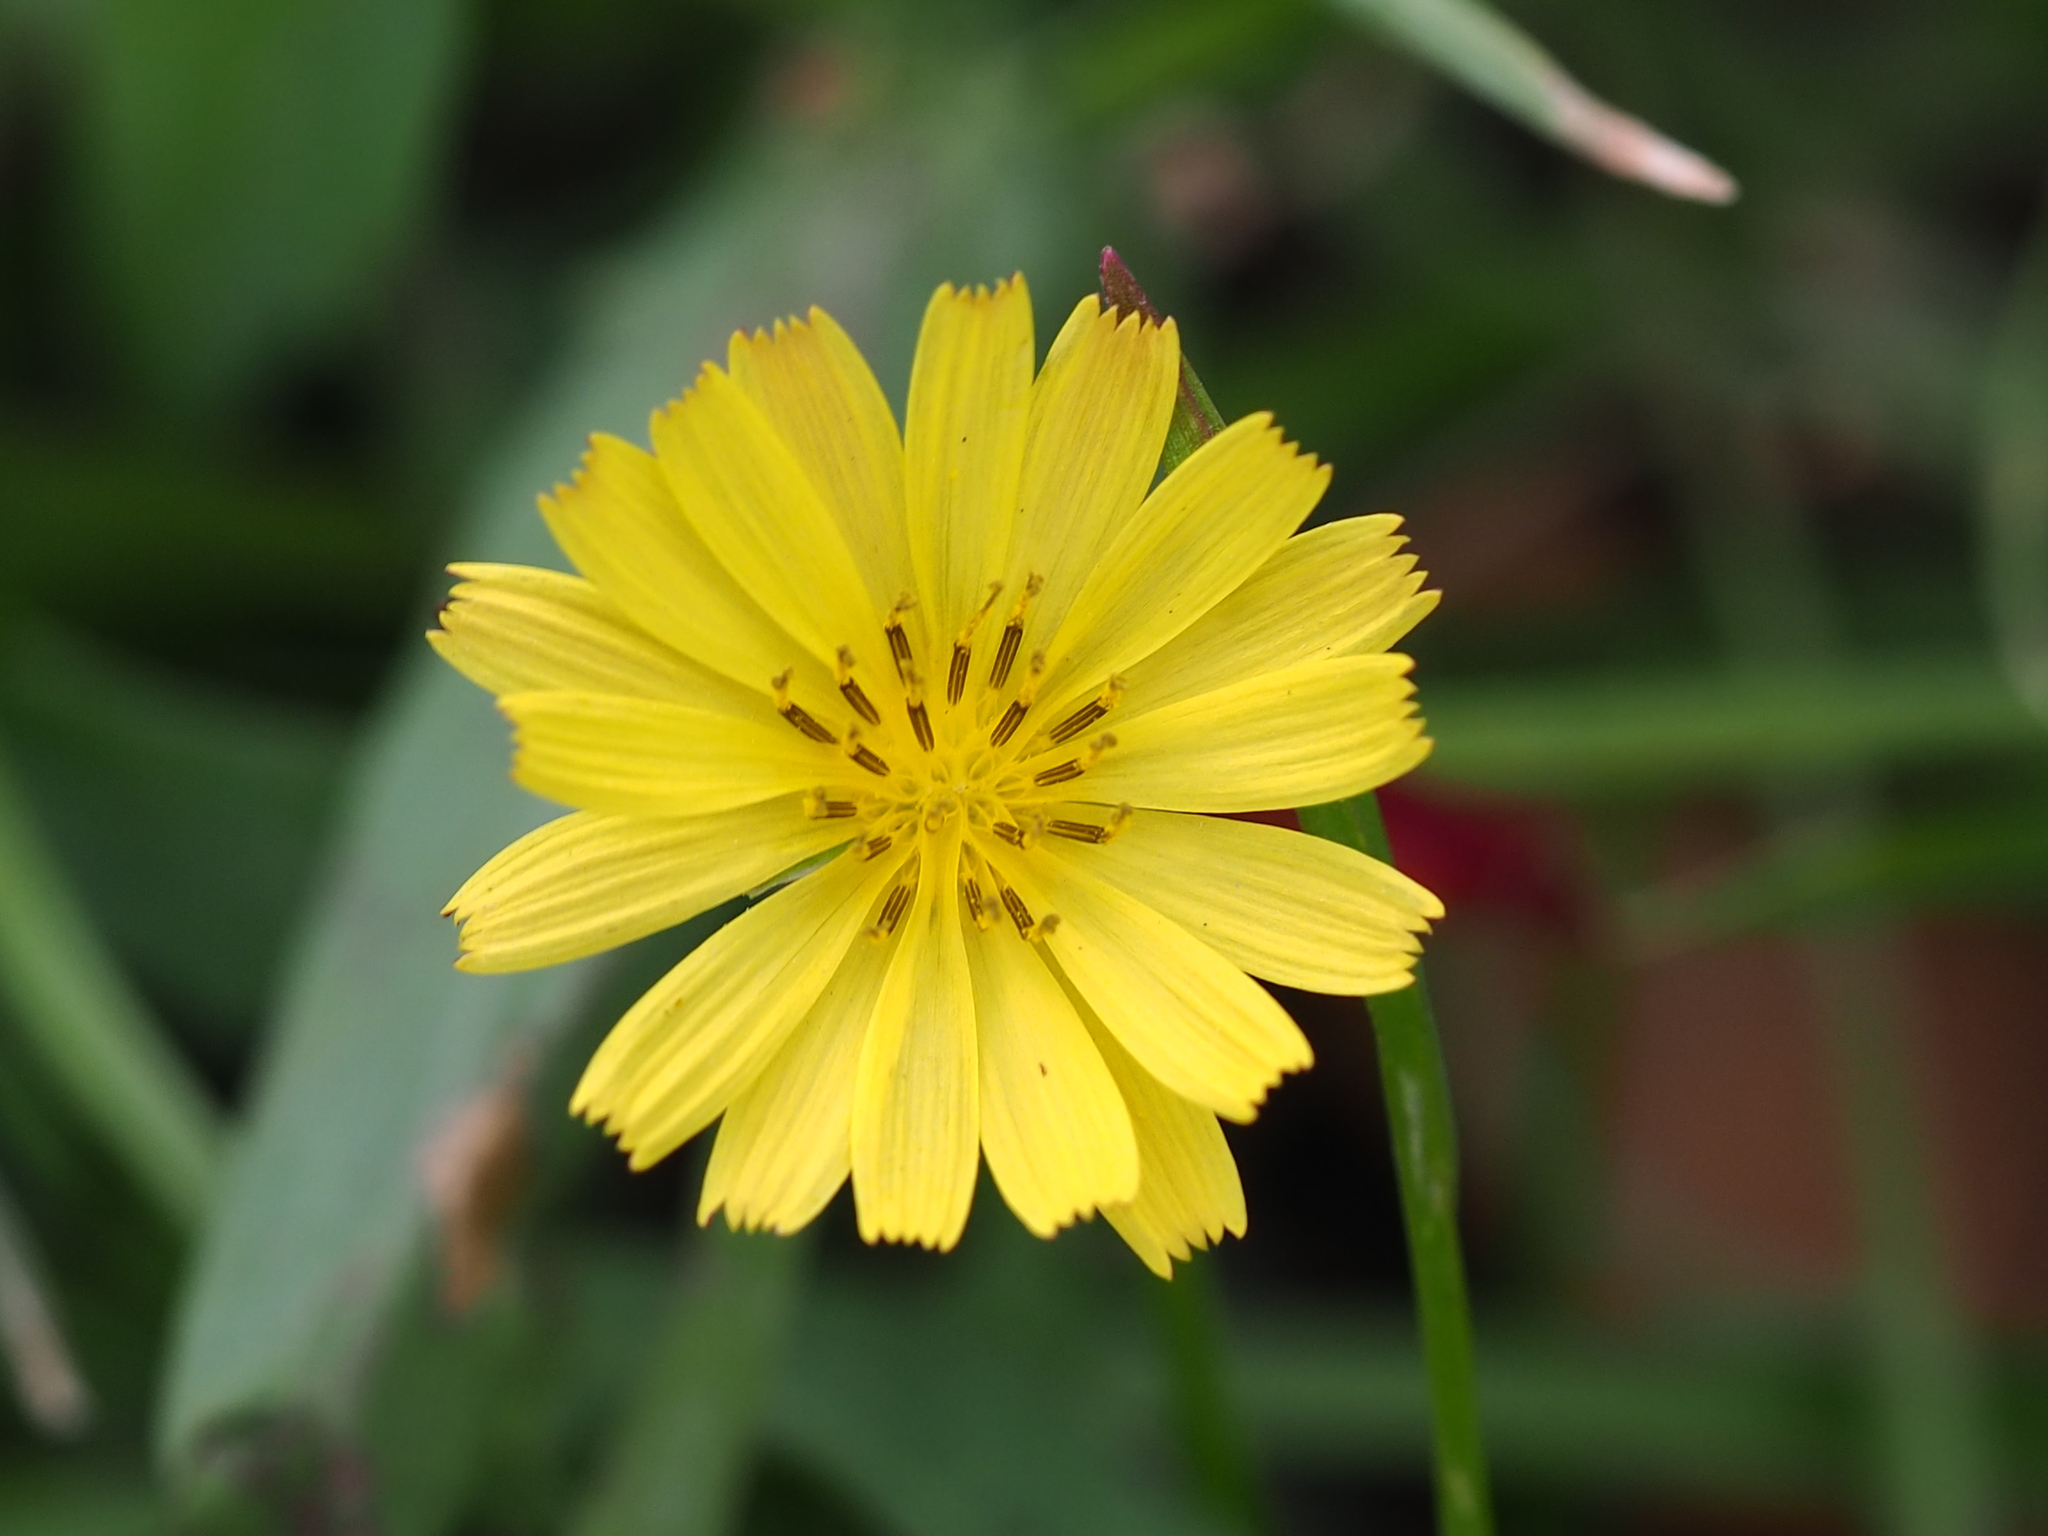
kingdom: Plantae
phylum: Tracheophyta
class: Magnoliopsida
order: Asterales
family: Asteraceae
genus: Ixeris
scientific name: Ixeris chinensis
